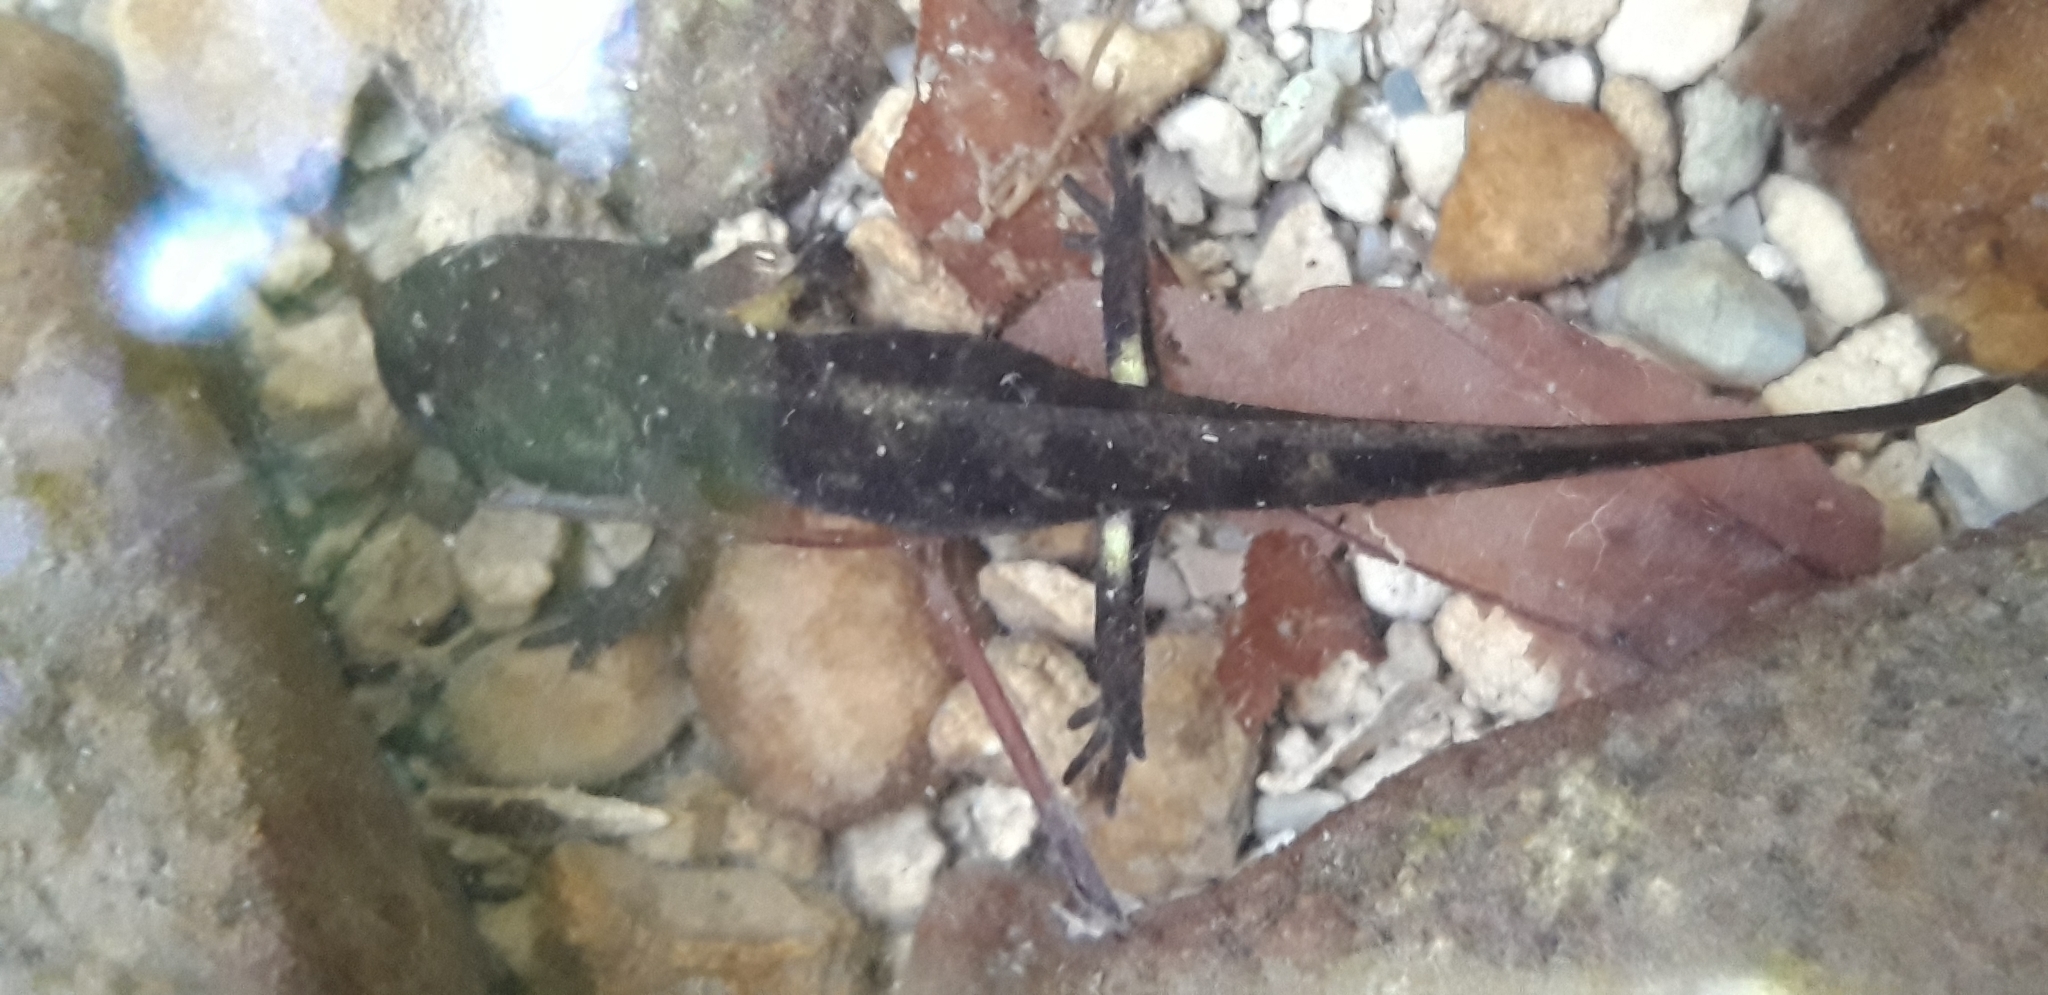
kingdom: Animalia
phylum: Chordata
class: Amphibia
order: Caudata
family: Salamandridae
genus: Salamandra
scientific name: Salamandra salamandra
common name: Fire salamander
